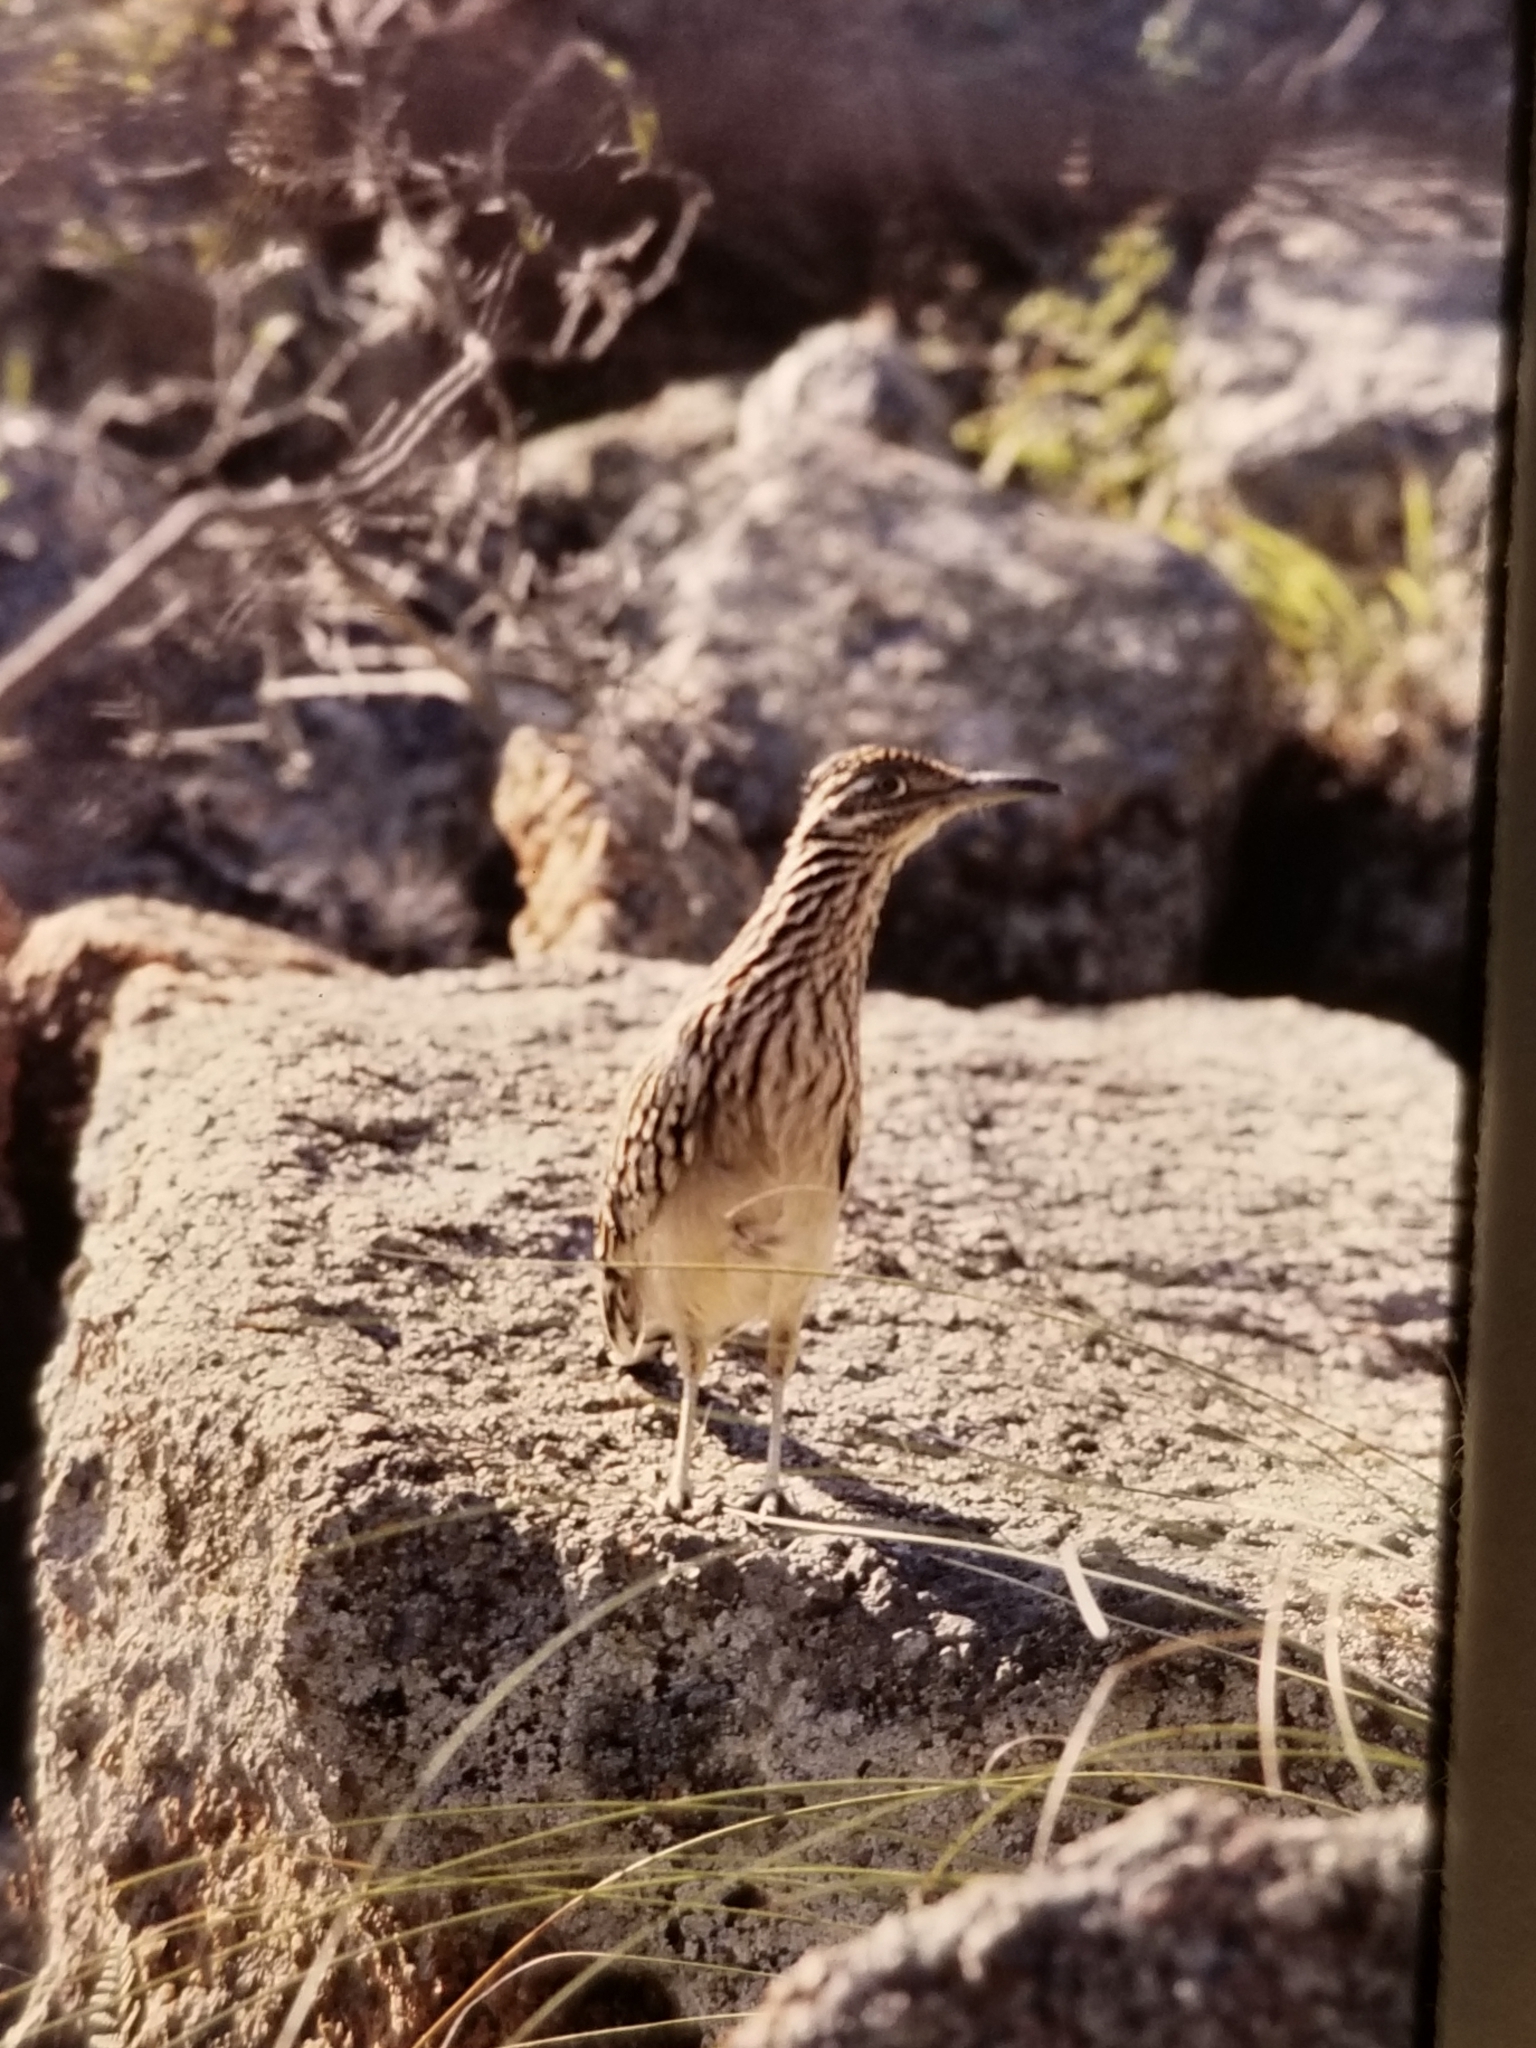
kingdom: Animalia
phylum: Chordata
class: Aves
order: Cuculiformes
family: Cuculidae
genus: Geococcyx
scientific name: Geococcyx californianus
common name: Greater roadrunner
